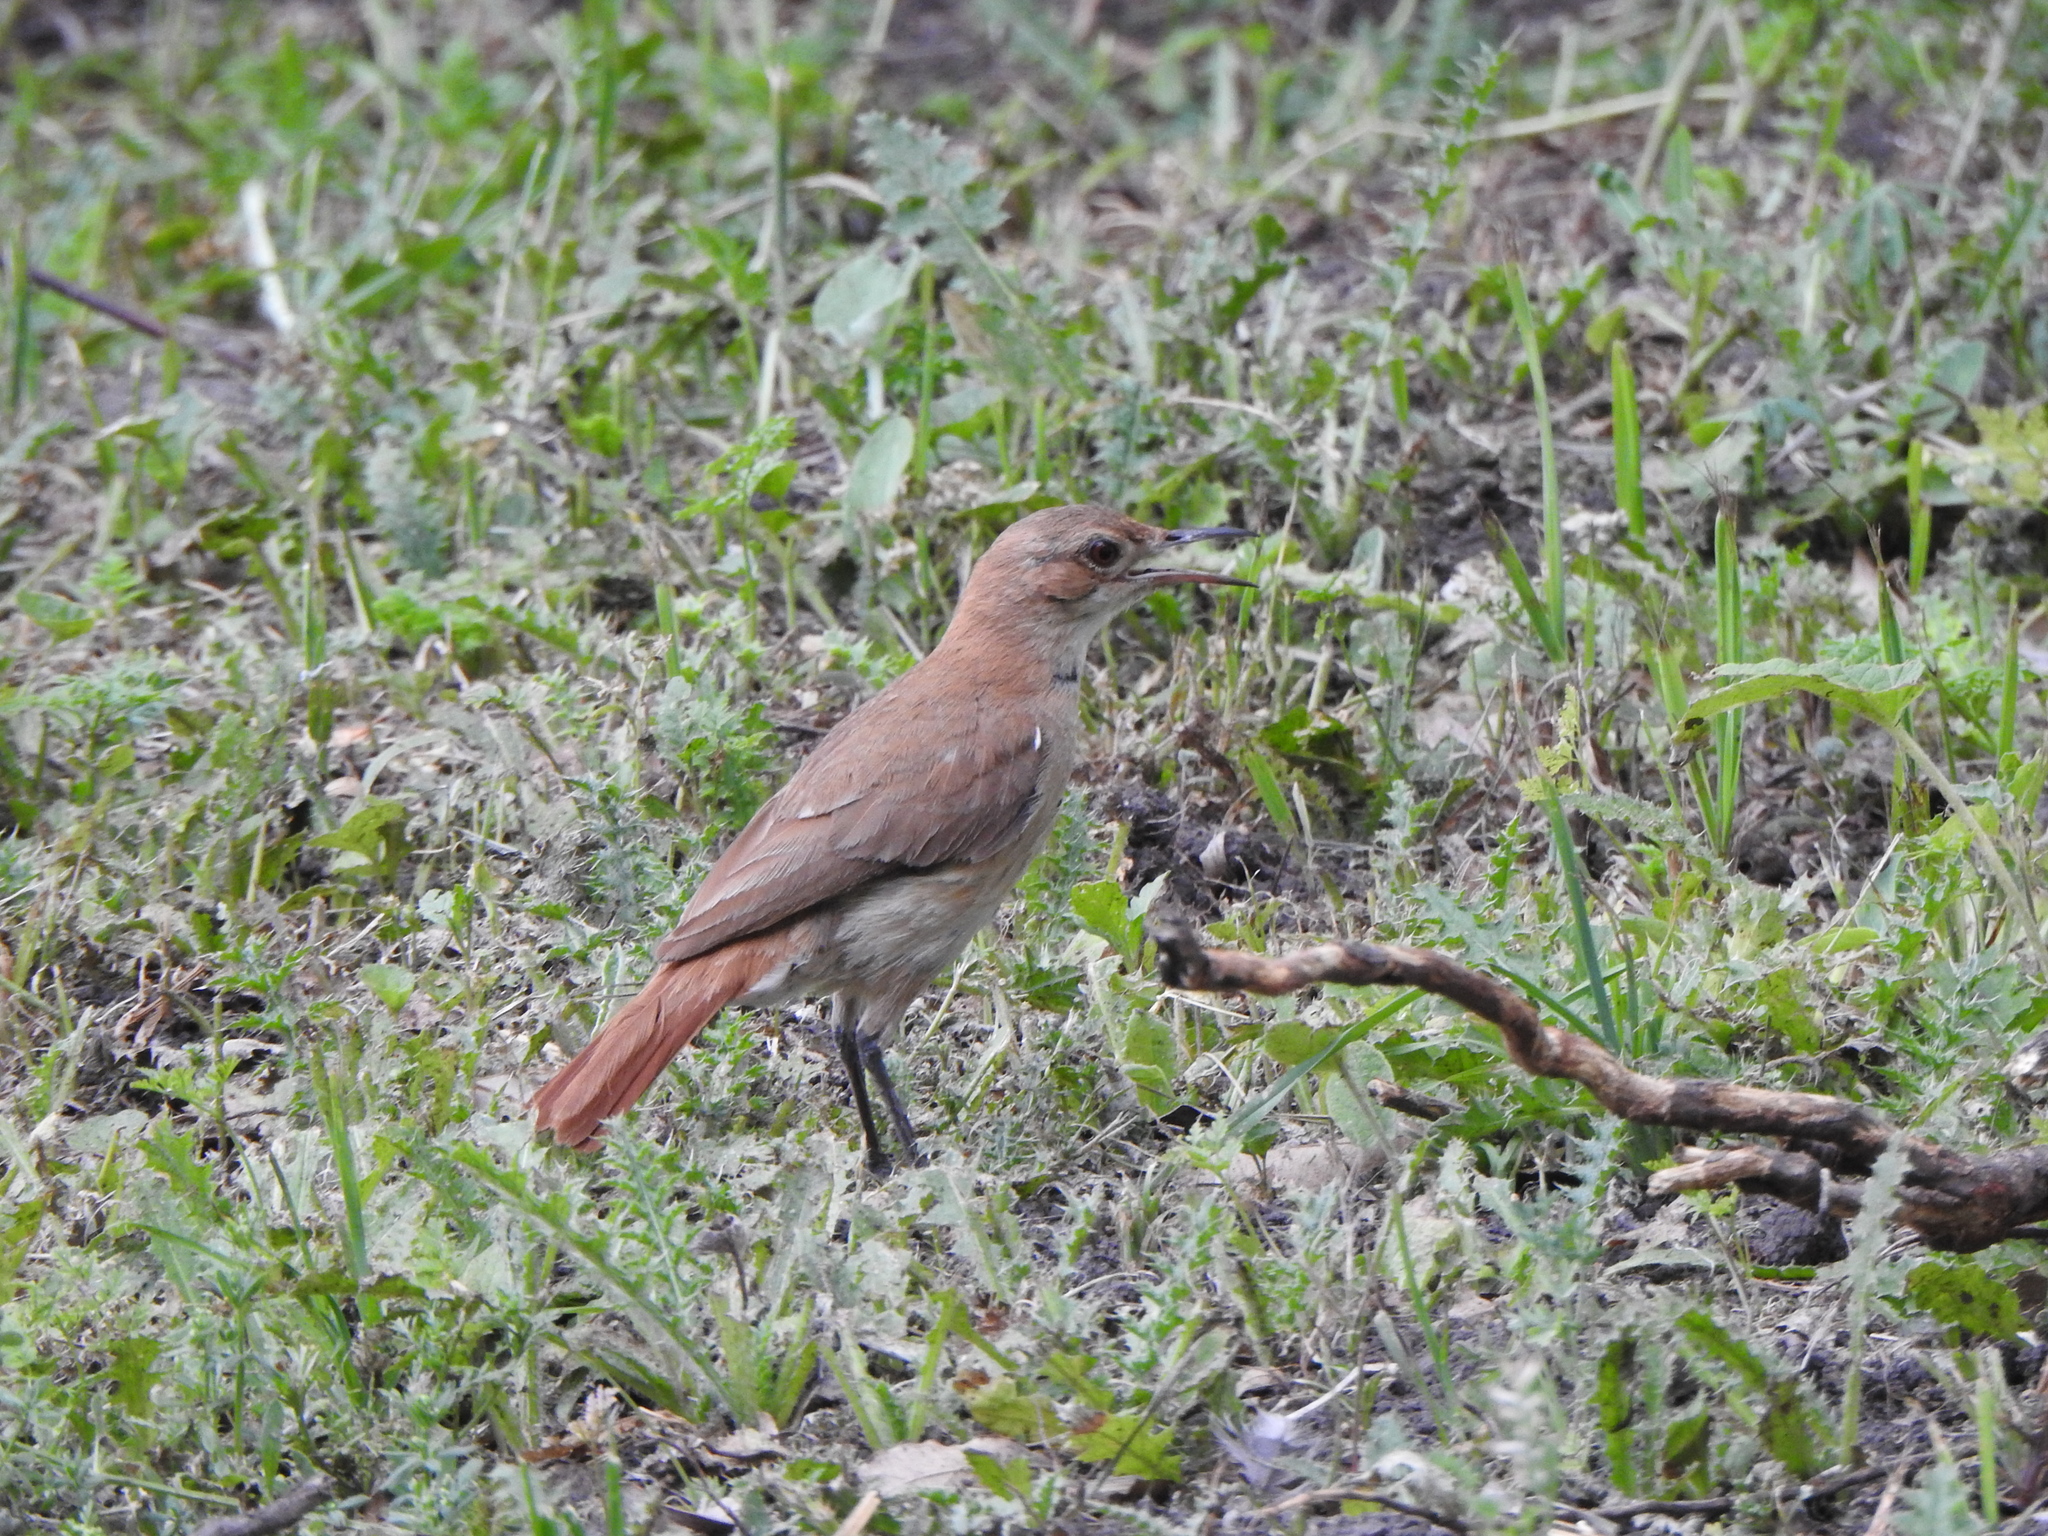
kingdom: Animalia
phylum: Chordata
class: Aves
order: Passeriformes
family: Furnariidae
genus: Furnarius
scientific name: Furnarius rufus
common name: Rufous hornero
